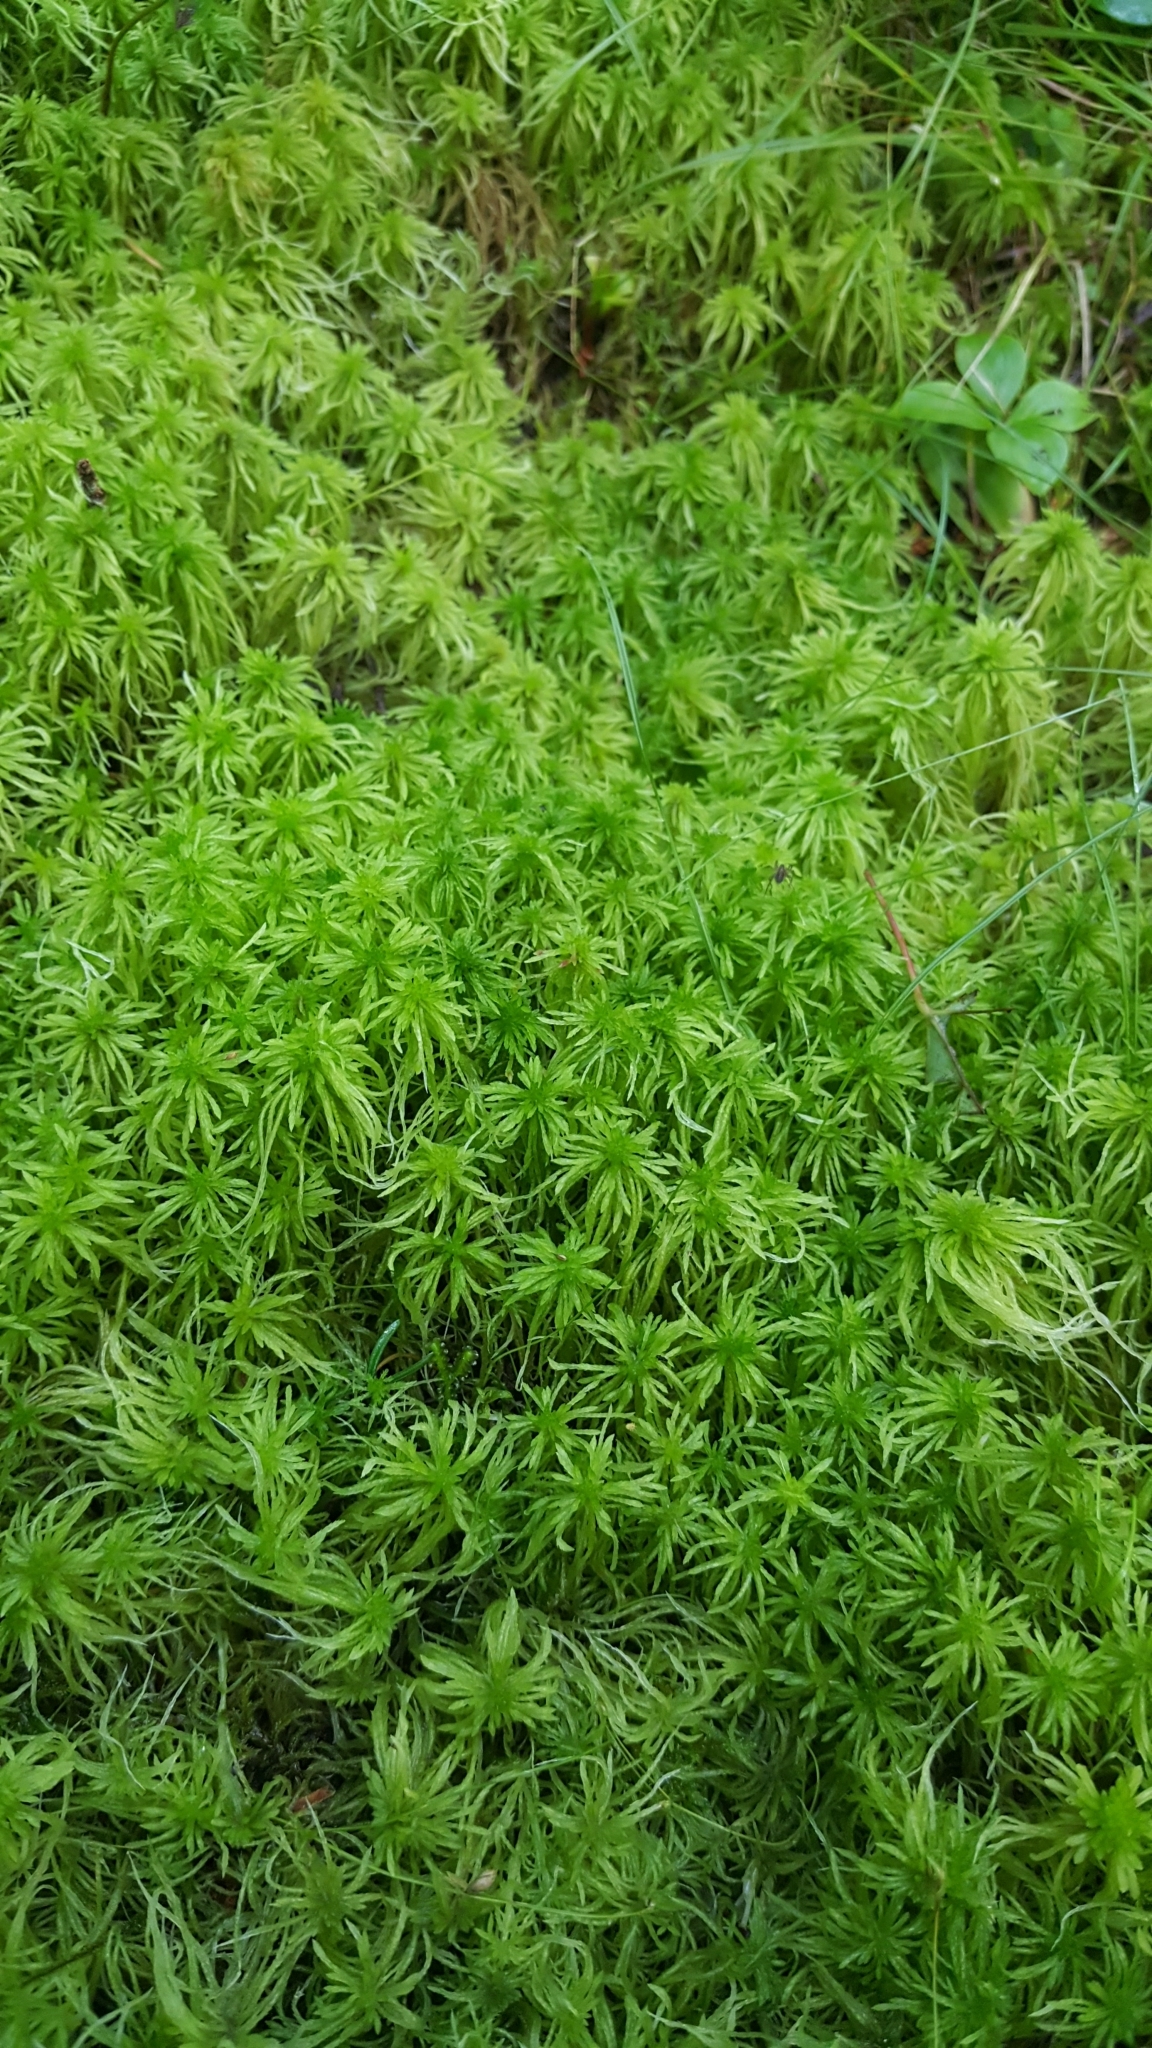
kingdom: Plantae
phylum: Bryophyta
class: Sphagnopsida
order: Sphagnales
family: Sphagnaceae
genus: Sphagnum
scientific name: Sphagnum girgensohnii
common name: Girgensohn's peat moss
